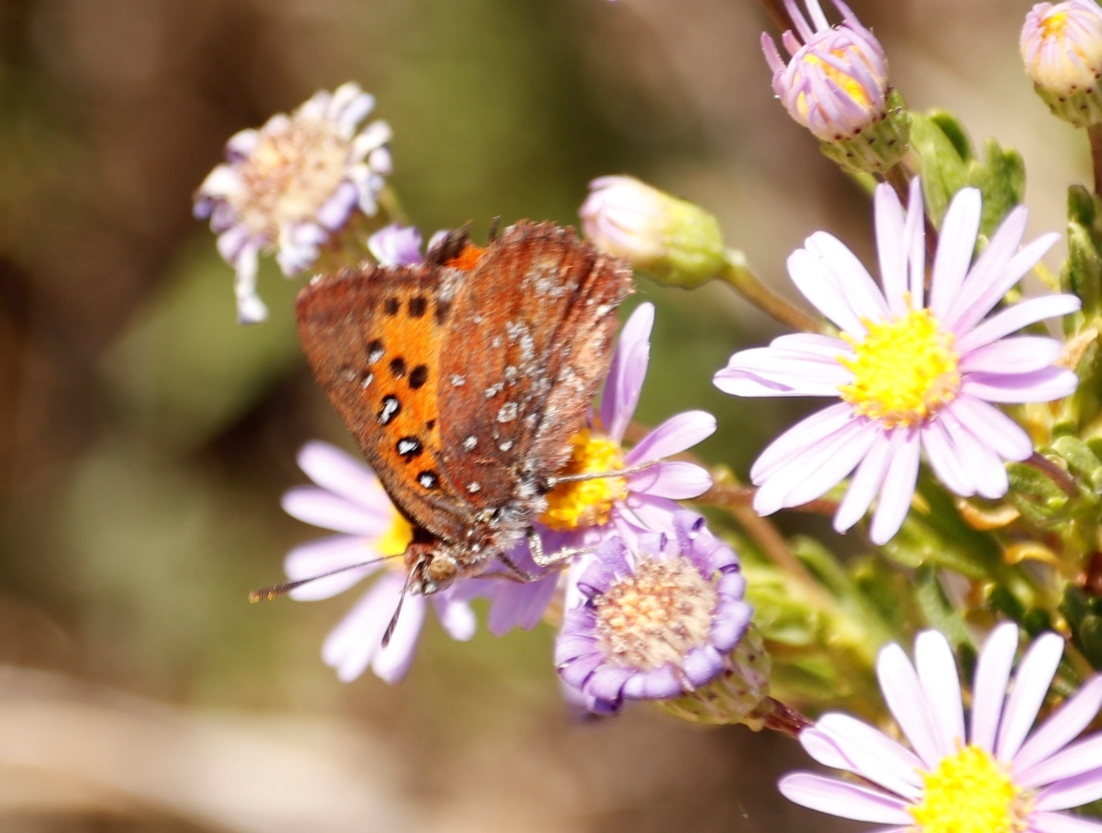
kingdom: Animalia
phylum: Arthropoda
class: Insecta
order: Lepidoptera
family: Lycaenidae
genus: Aloeides
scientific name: Aloeides thyra
